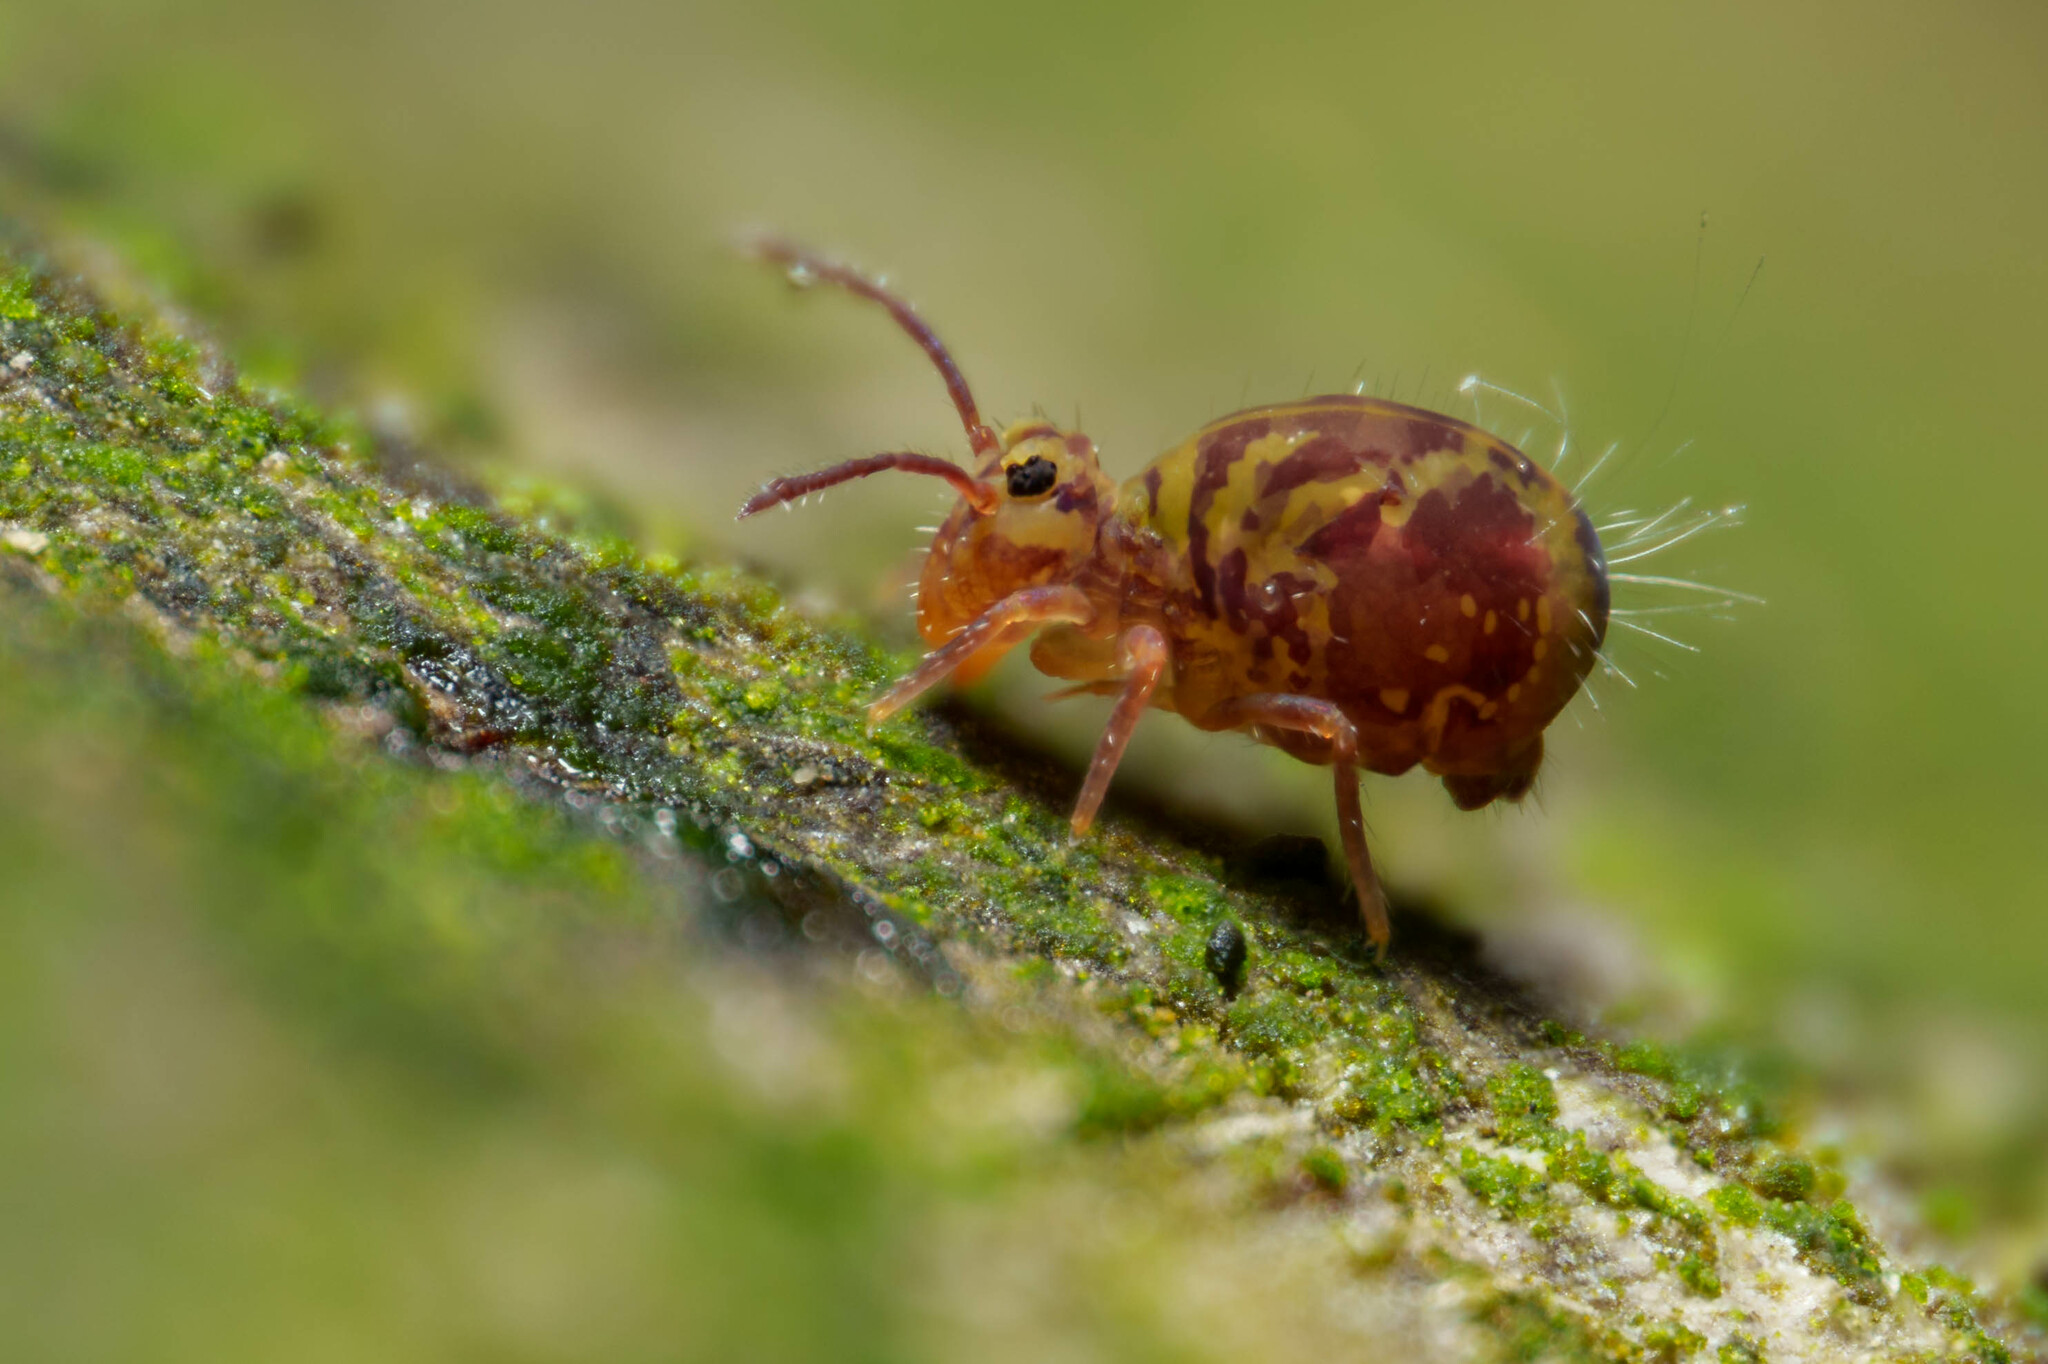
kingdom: Animalia
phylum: Arthropoda
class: Collembola
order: Symphypleona
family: Dicyrtomidae
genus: Dicyrtomina
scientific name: Dicyrtomina minuta
